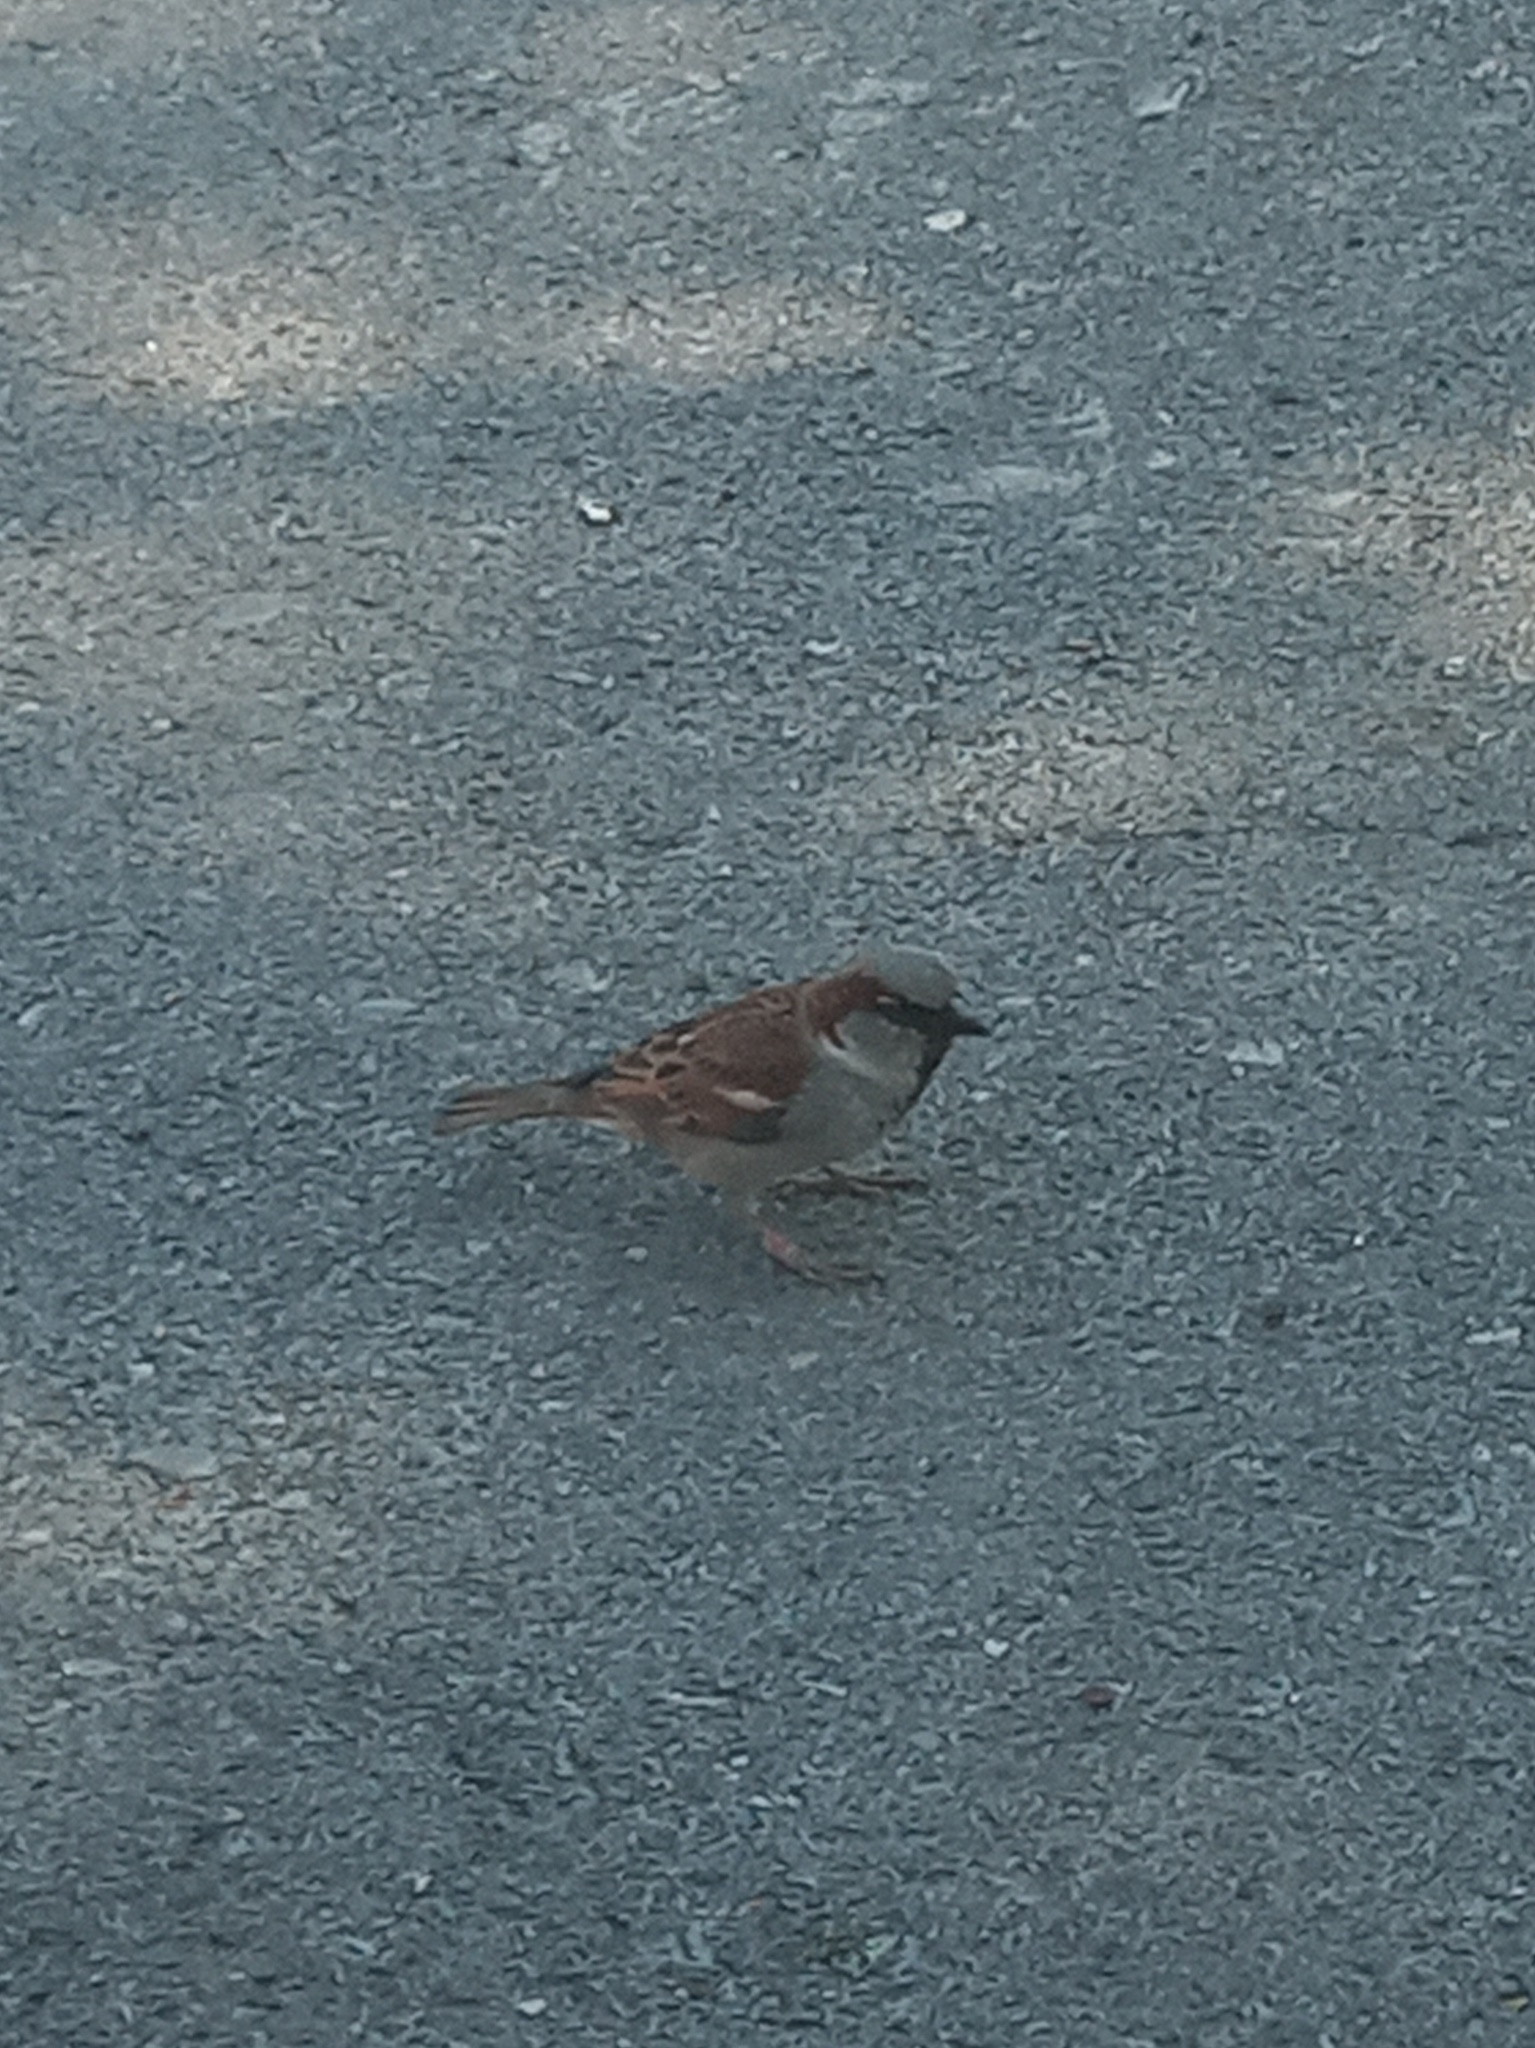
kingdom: Animalia
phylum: Chordata
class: Aves
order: Passeriformes
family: Passeridae
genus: Passer
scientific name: Passer domesticus
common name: House sparrow
